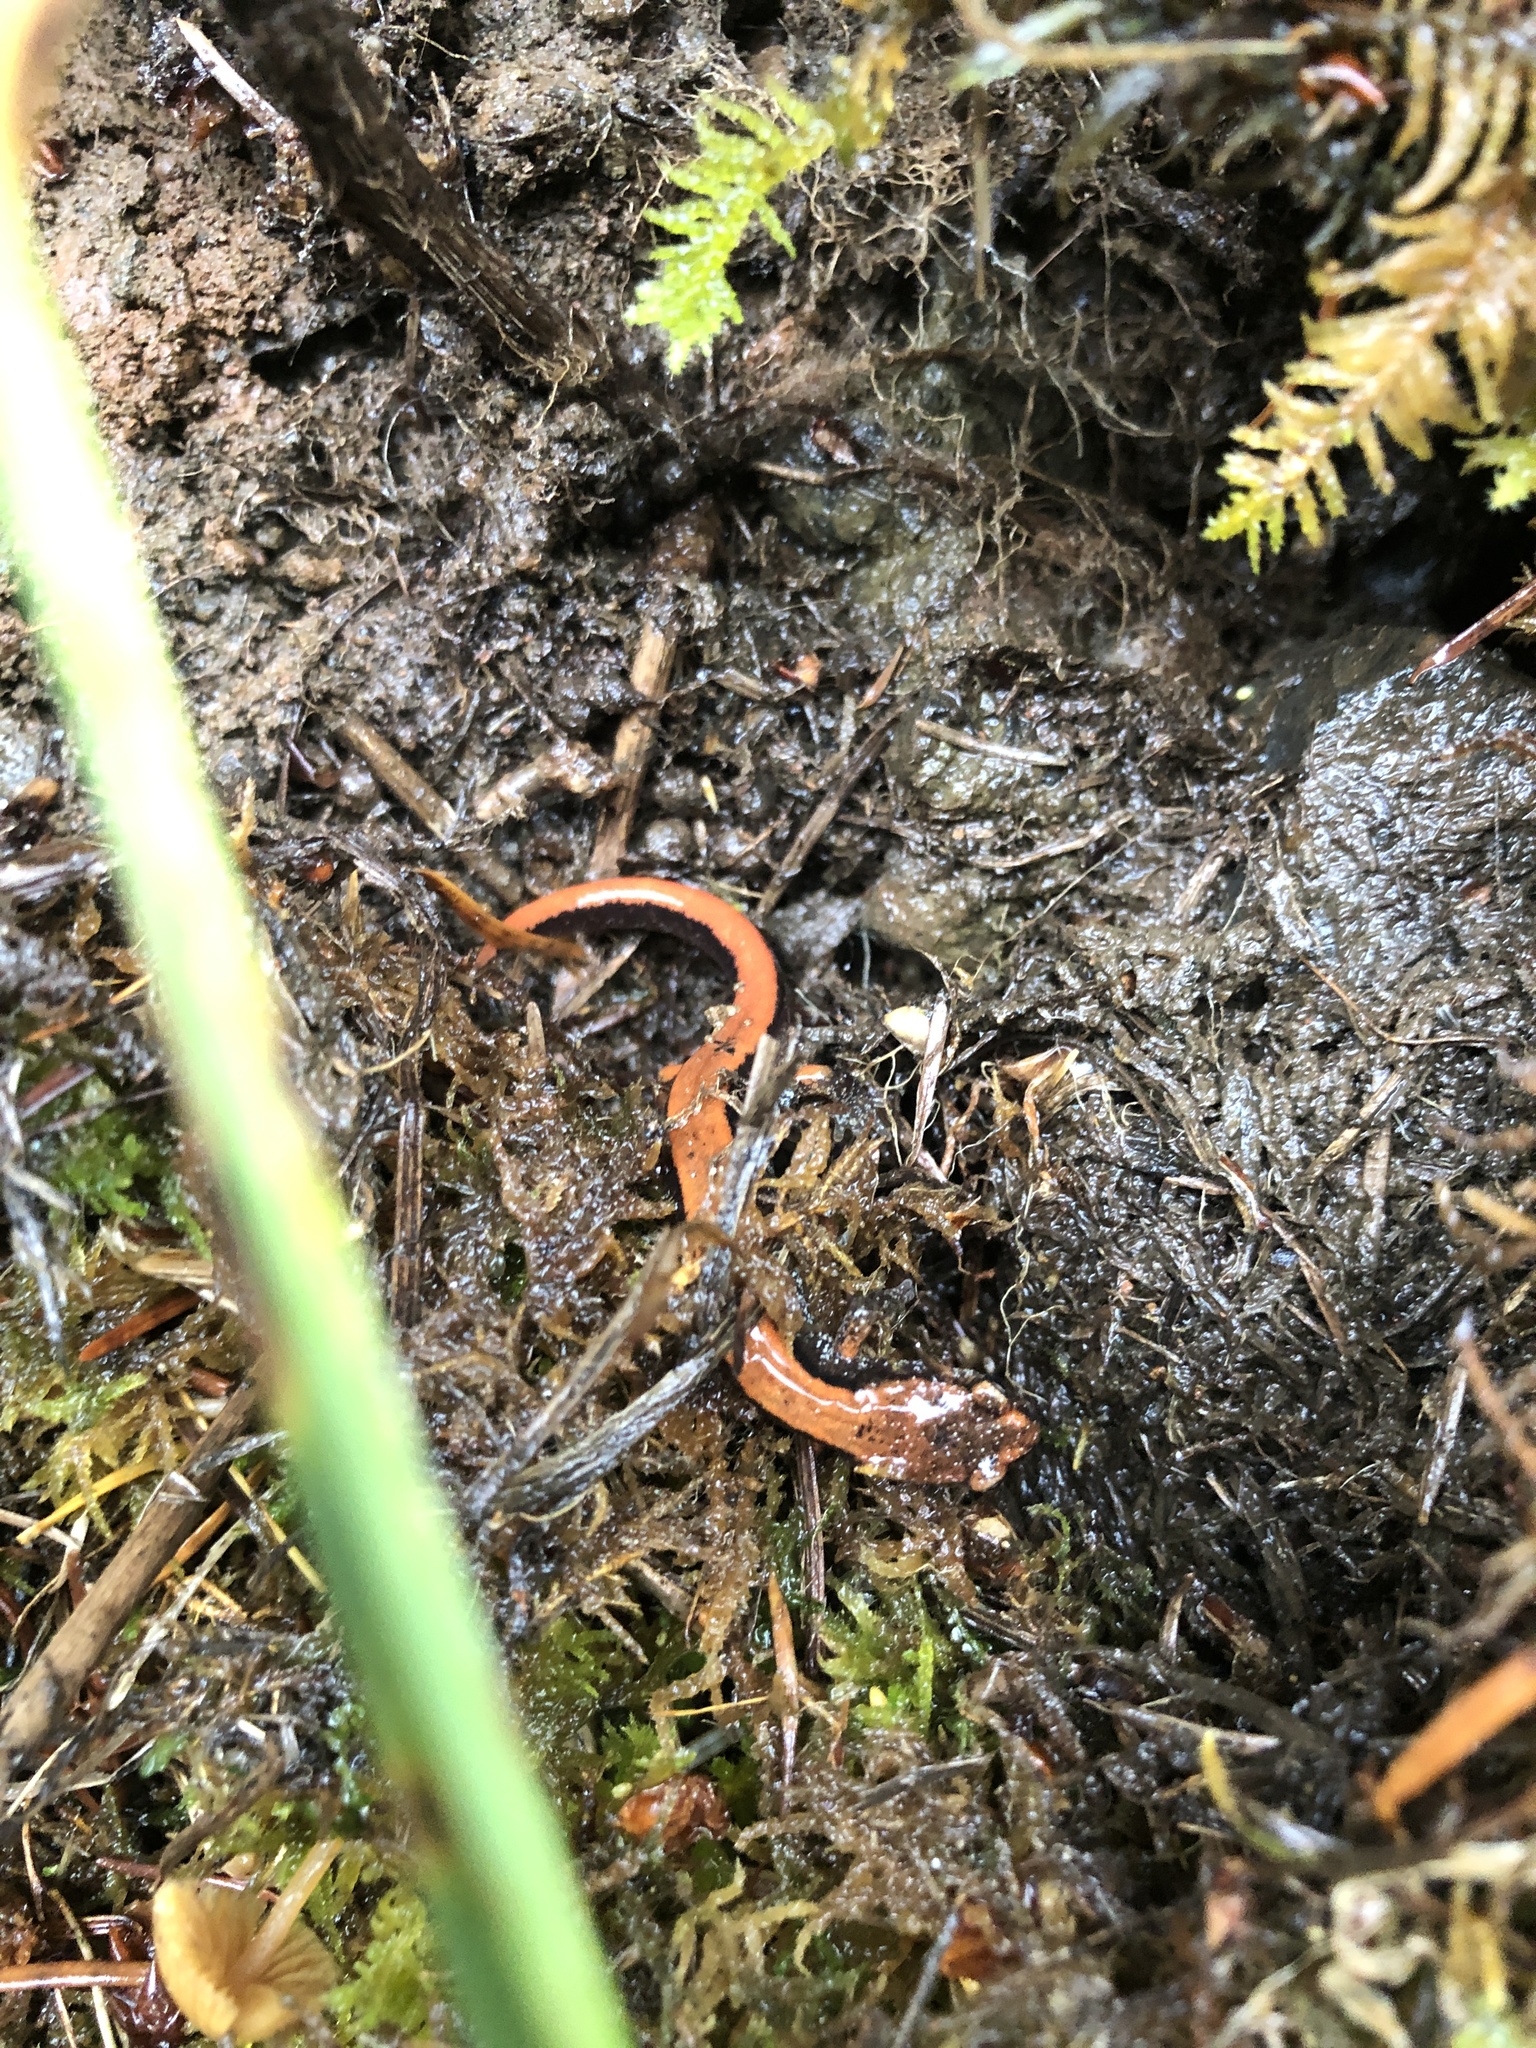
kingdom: Animalia
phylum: Chordata
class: Amphibia
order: Caudata
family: Plethodontidae
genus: Plethodon
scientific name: Plethodon vehiculum
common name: Western red-backed salamander
